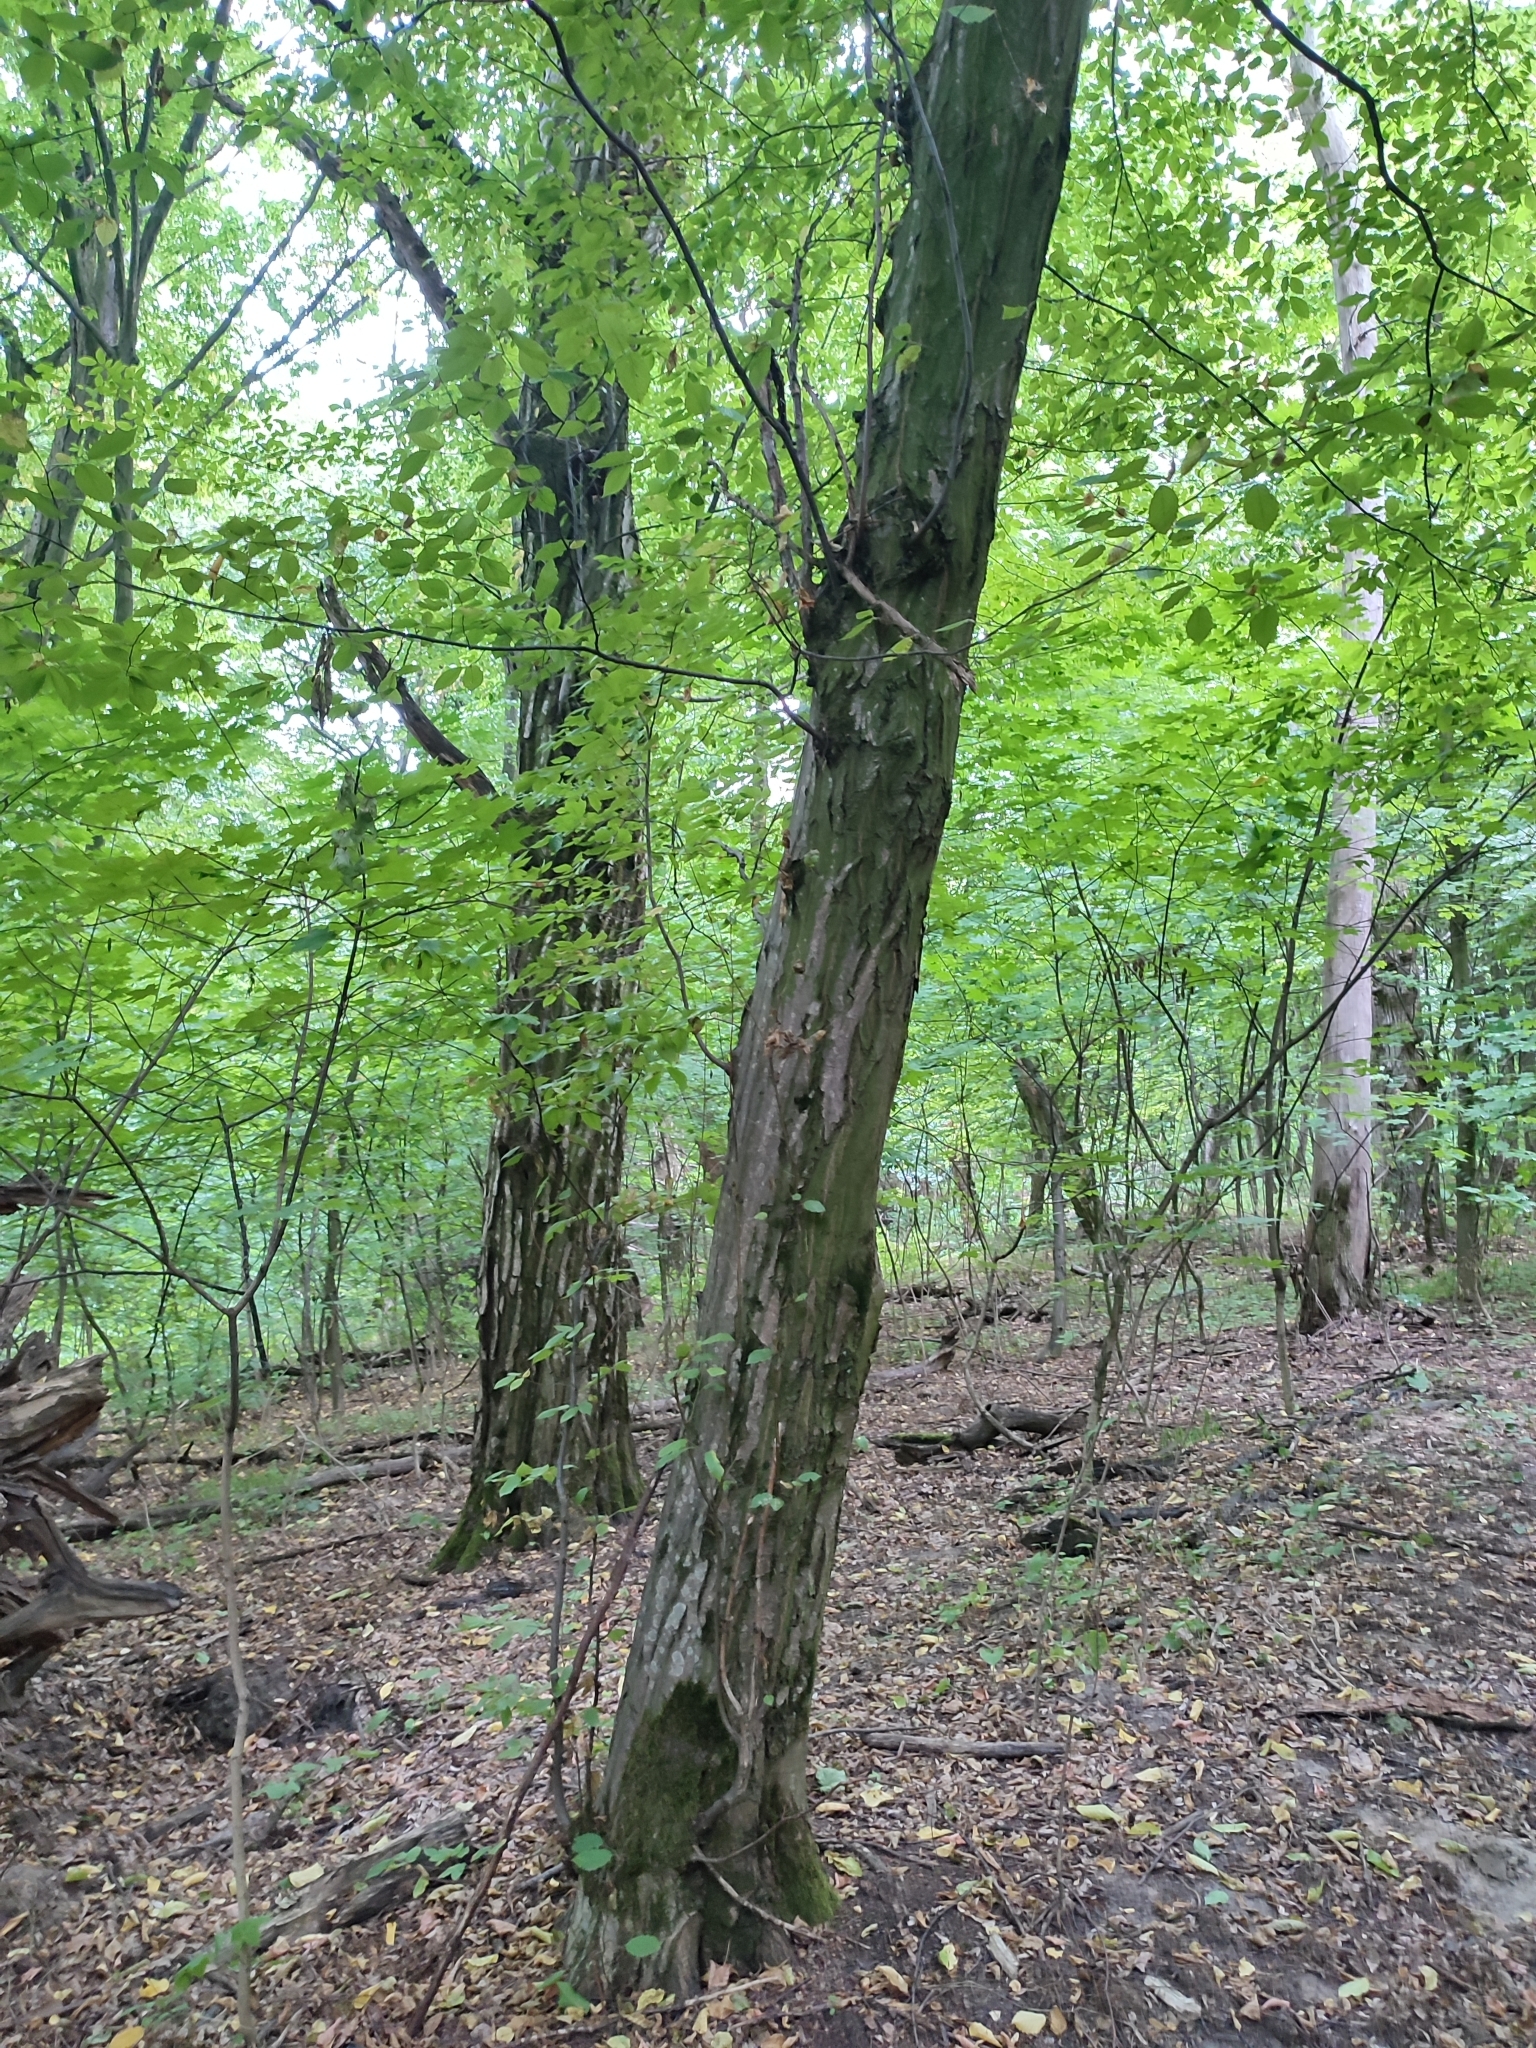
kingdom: Plantae
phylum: Tracheophyta
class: Magnoliopsida
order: Fagales
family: Betulaceae
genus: Carpinus
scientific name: Carpinus betulus
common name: Hornbeam
